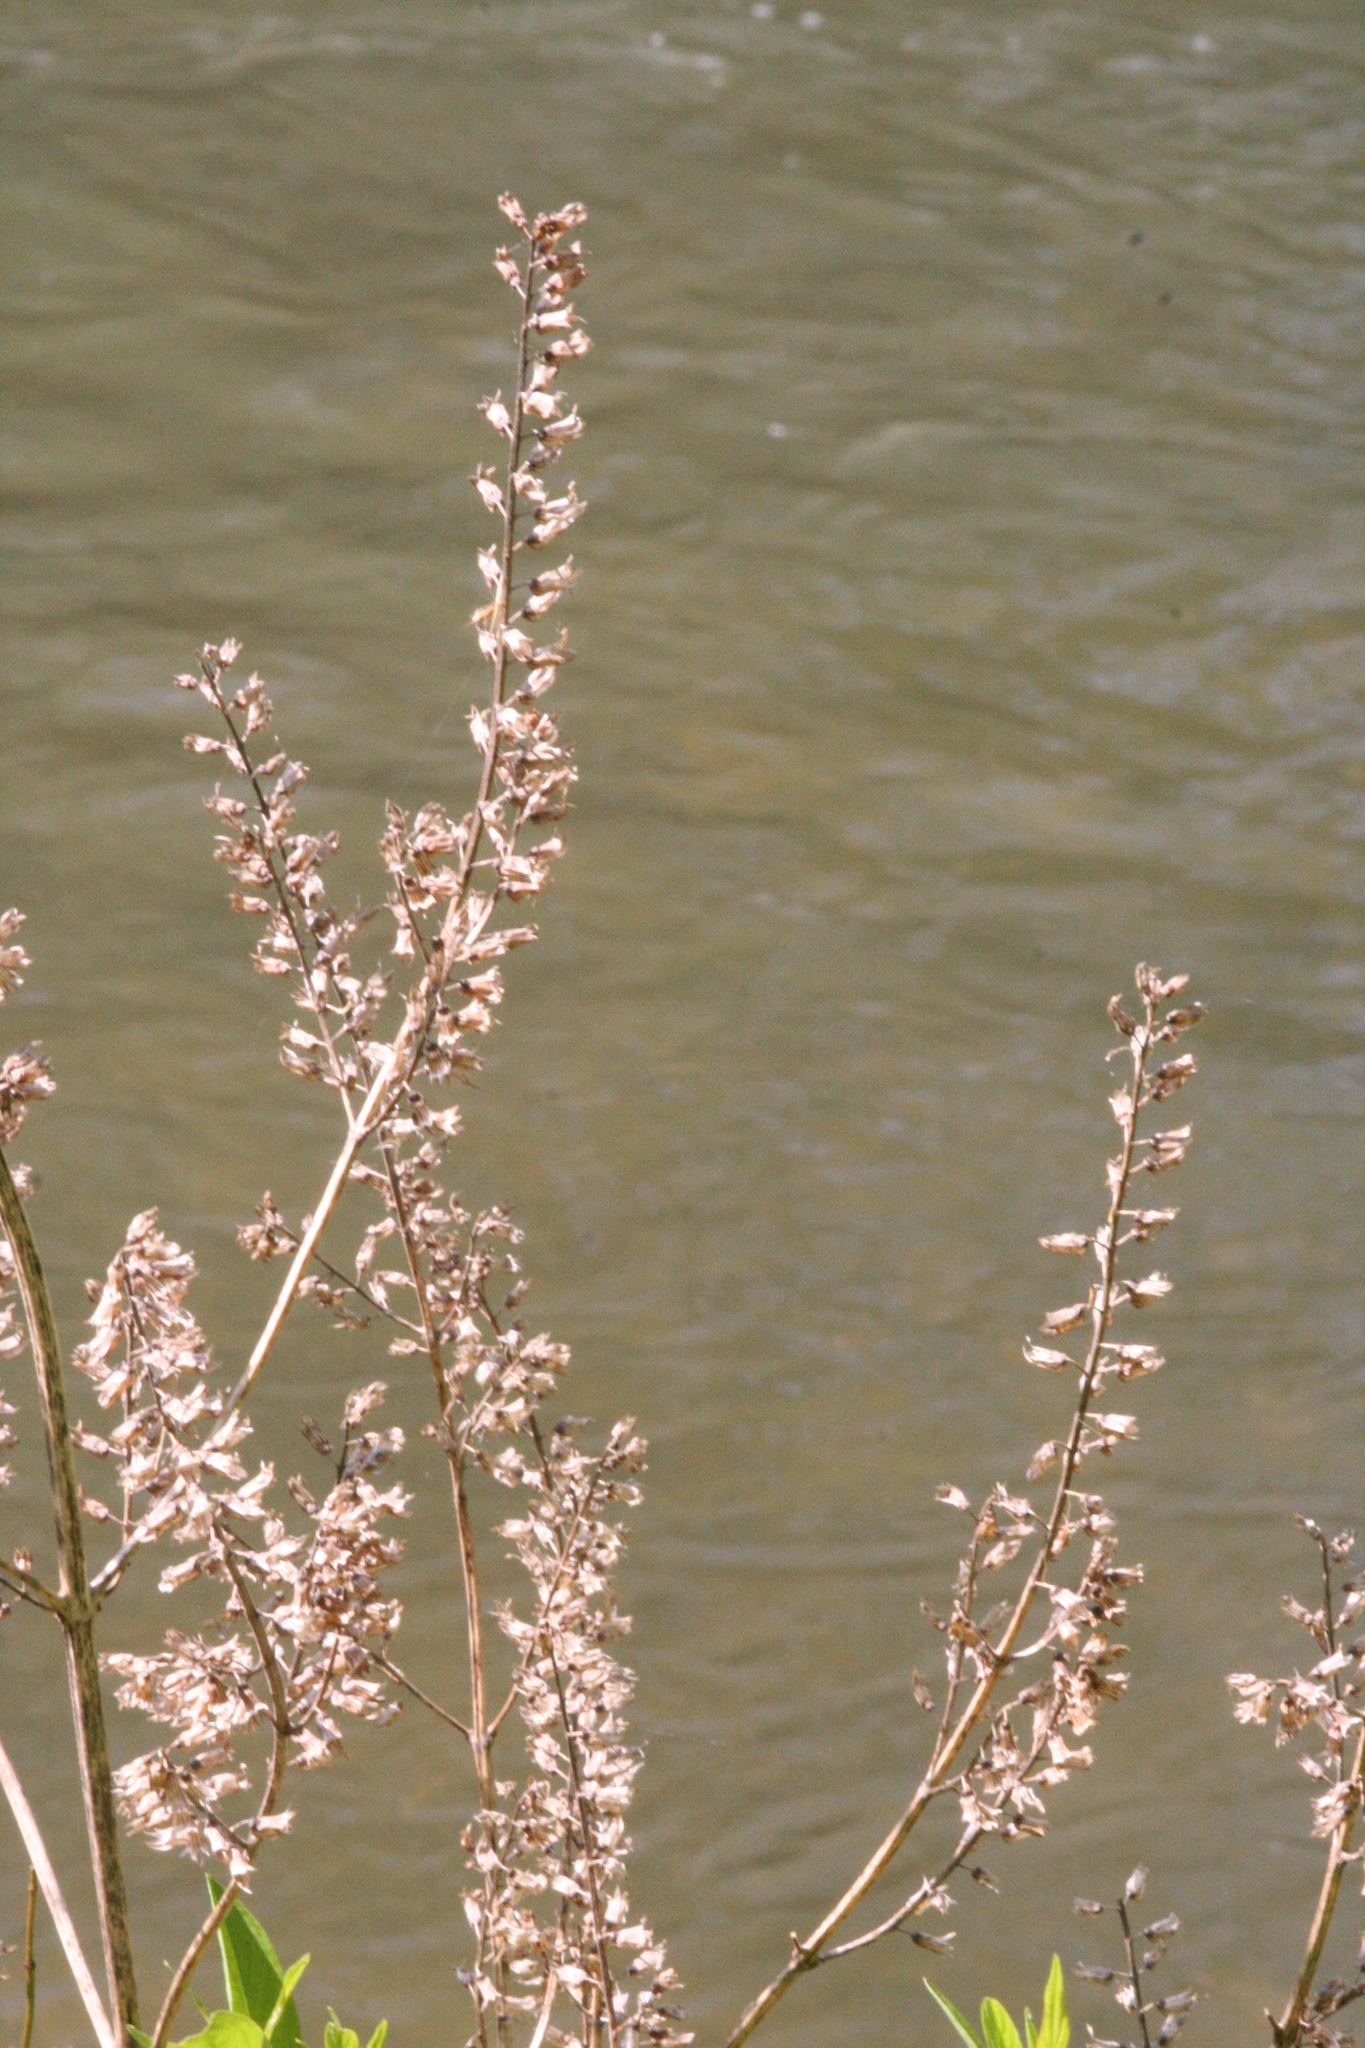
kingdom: Plantae
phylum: Tracheophyta
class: Magnoliopsida
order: Lamiales
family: Lamiaceae
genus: Perilla
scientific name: Perilla frutescens
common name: Perilla
